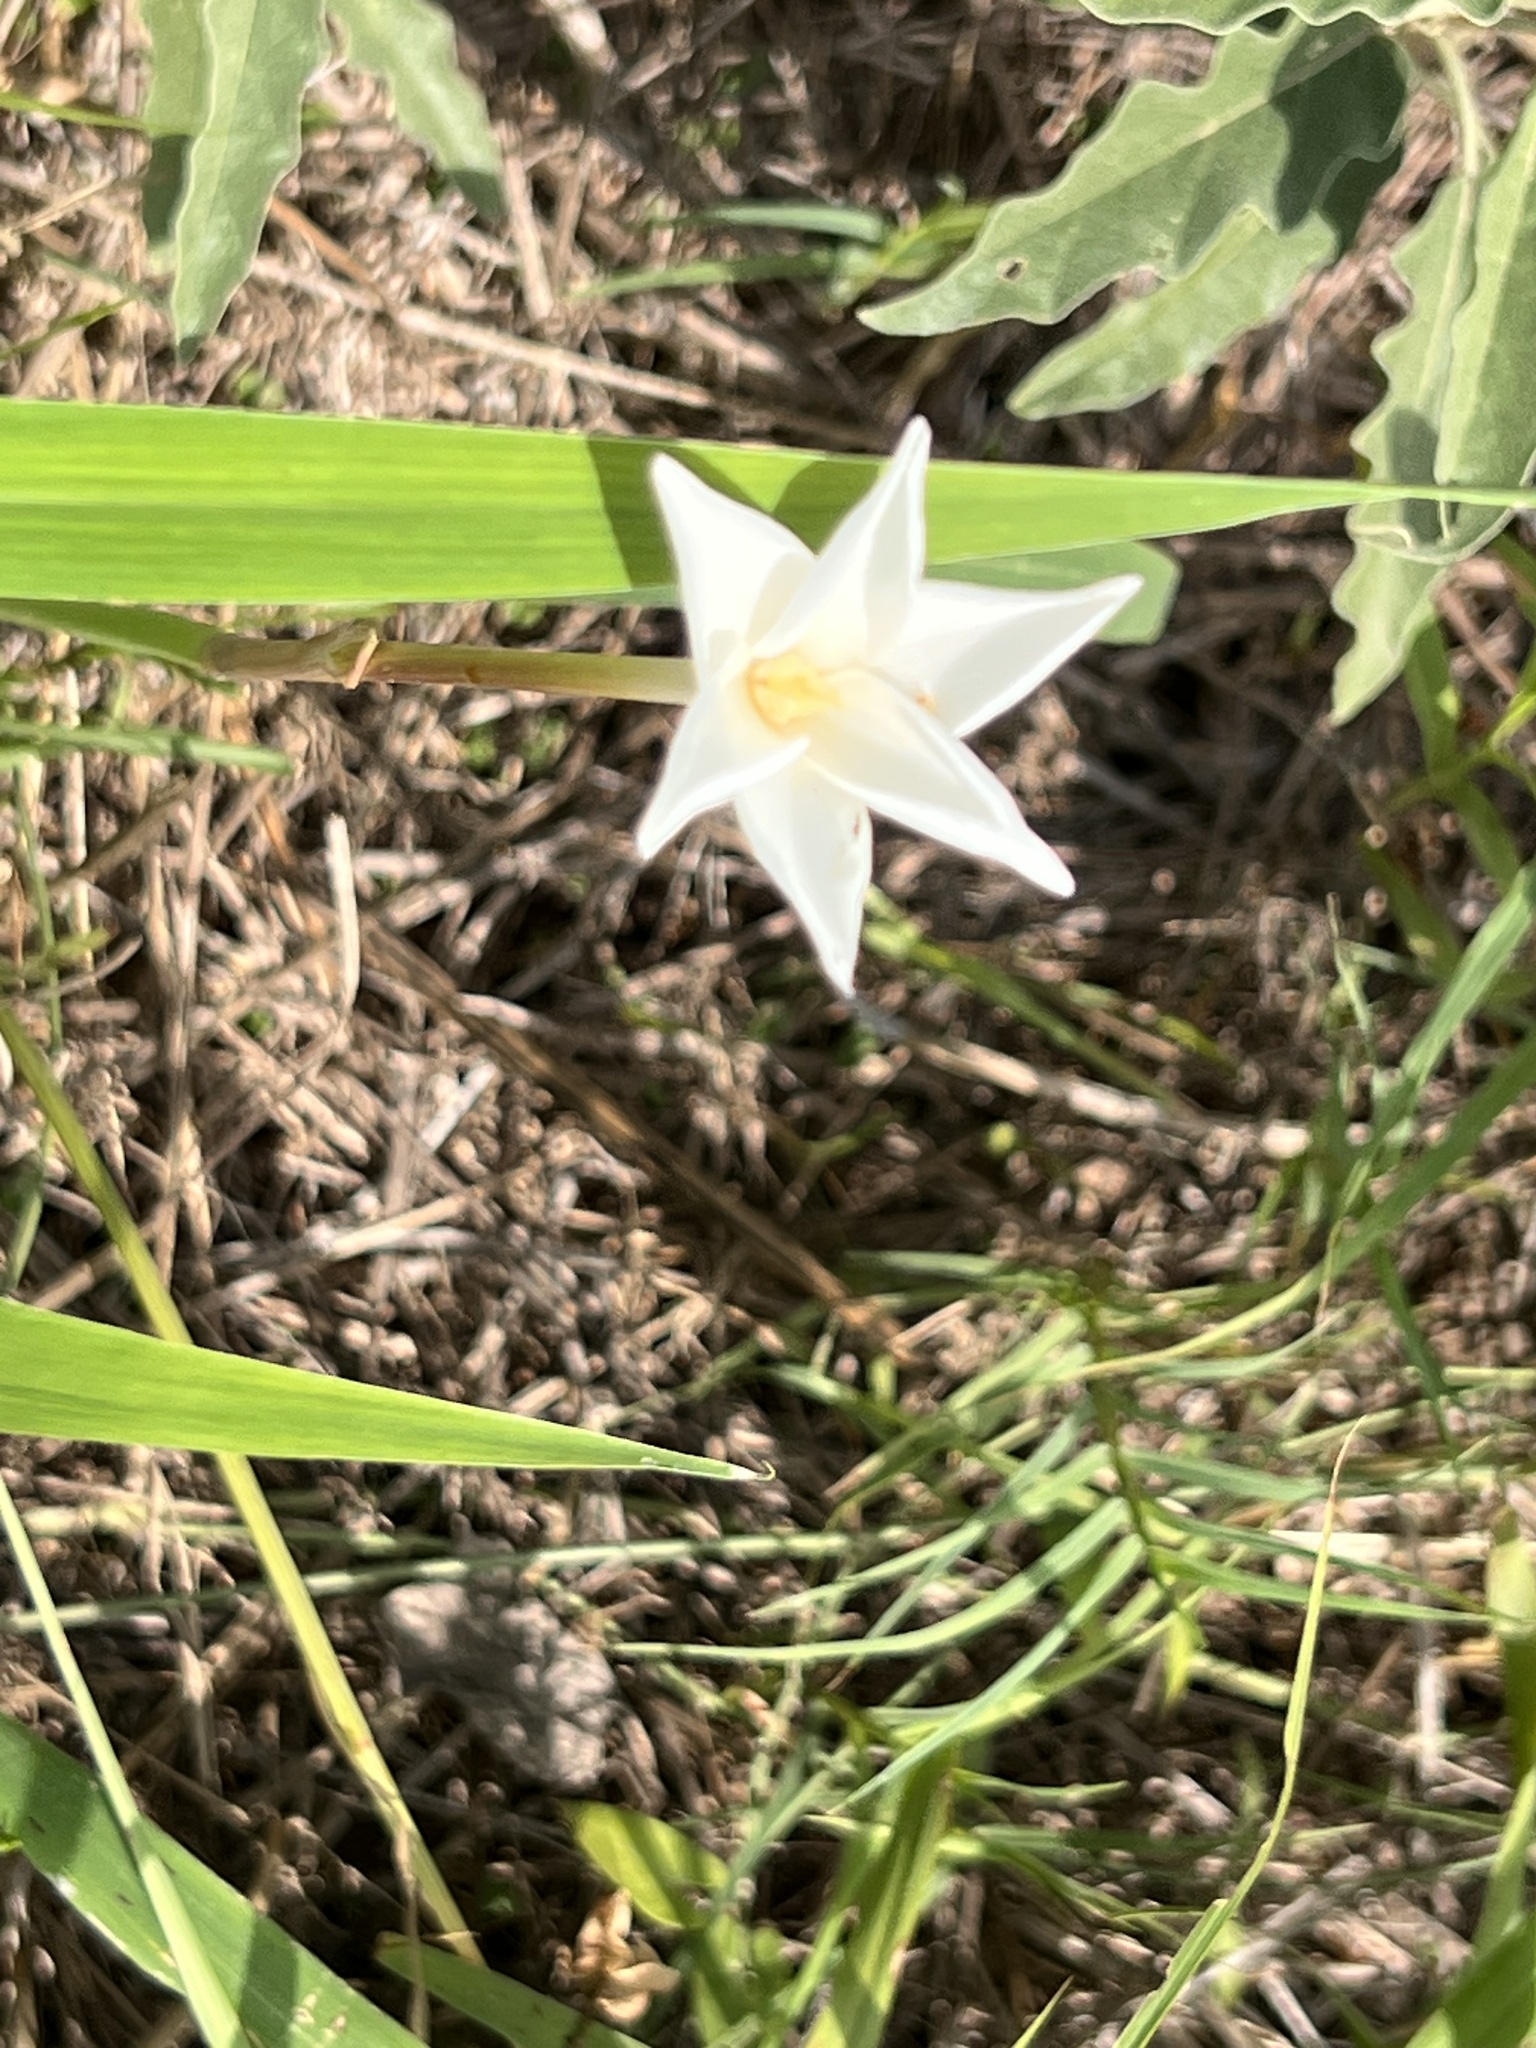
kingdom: Plantae
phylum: Tracheophyta
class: Liliopsida
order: Asparagales
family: Amaryllidaceae
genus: Zephyranthes
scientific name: Zephyranthes chlorosolen
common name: Evening rain-lily
